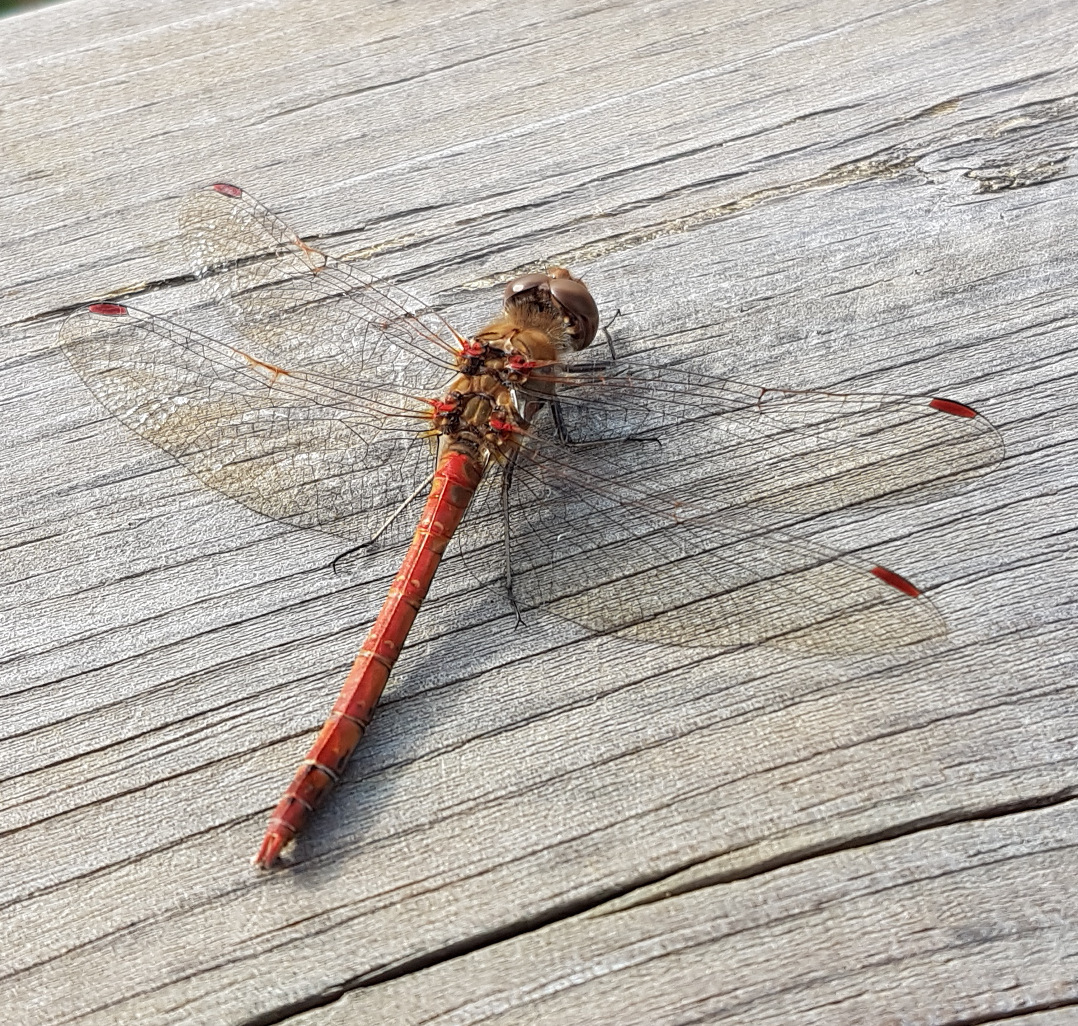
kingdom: Animalia
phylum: Arthropoda
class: Insecta
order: Odonata
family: Libellulidae
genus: Sympetrum
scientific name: Sympetrum striolatum
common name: Common darter
